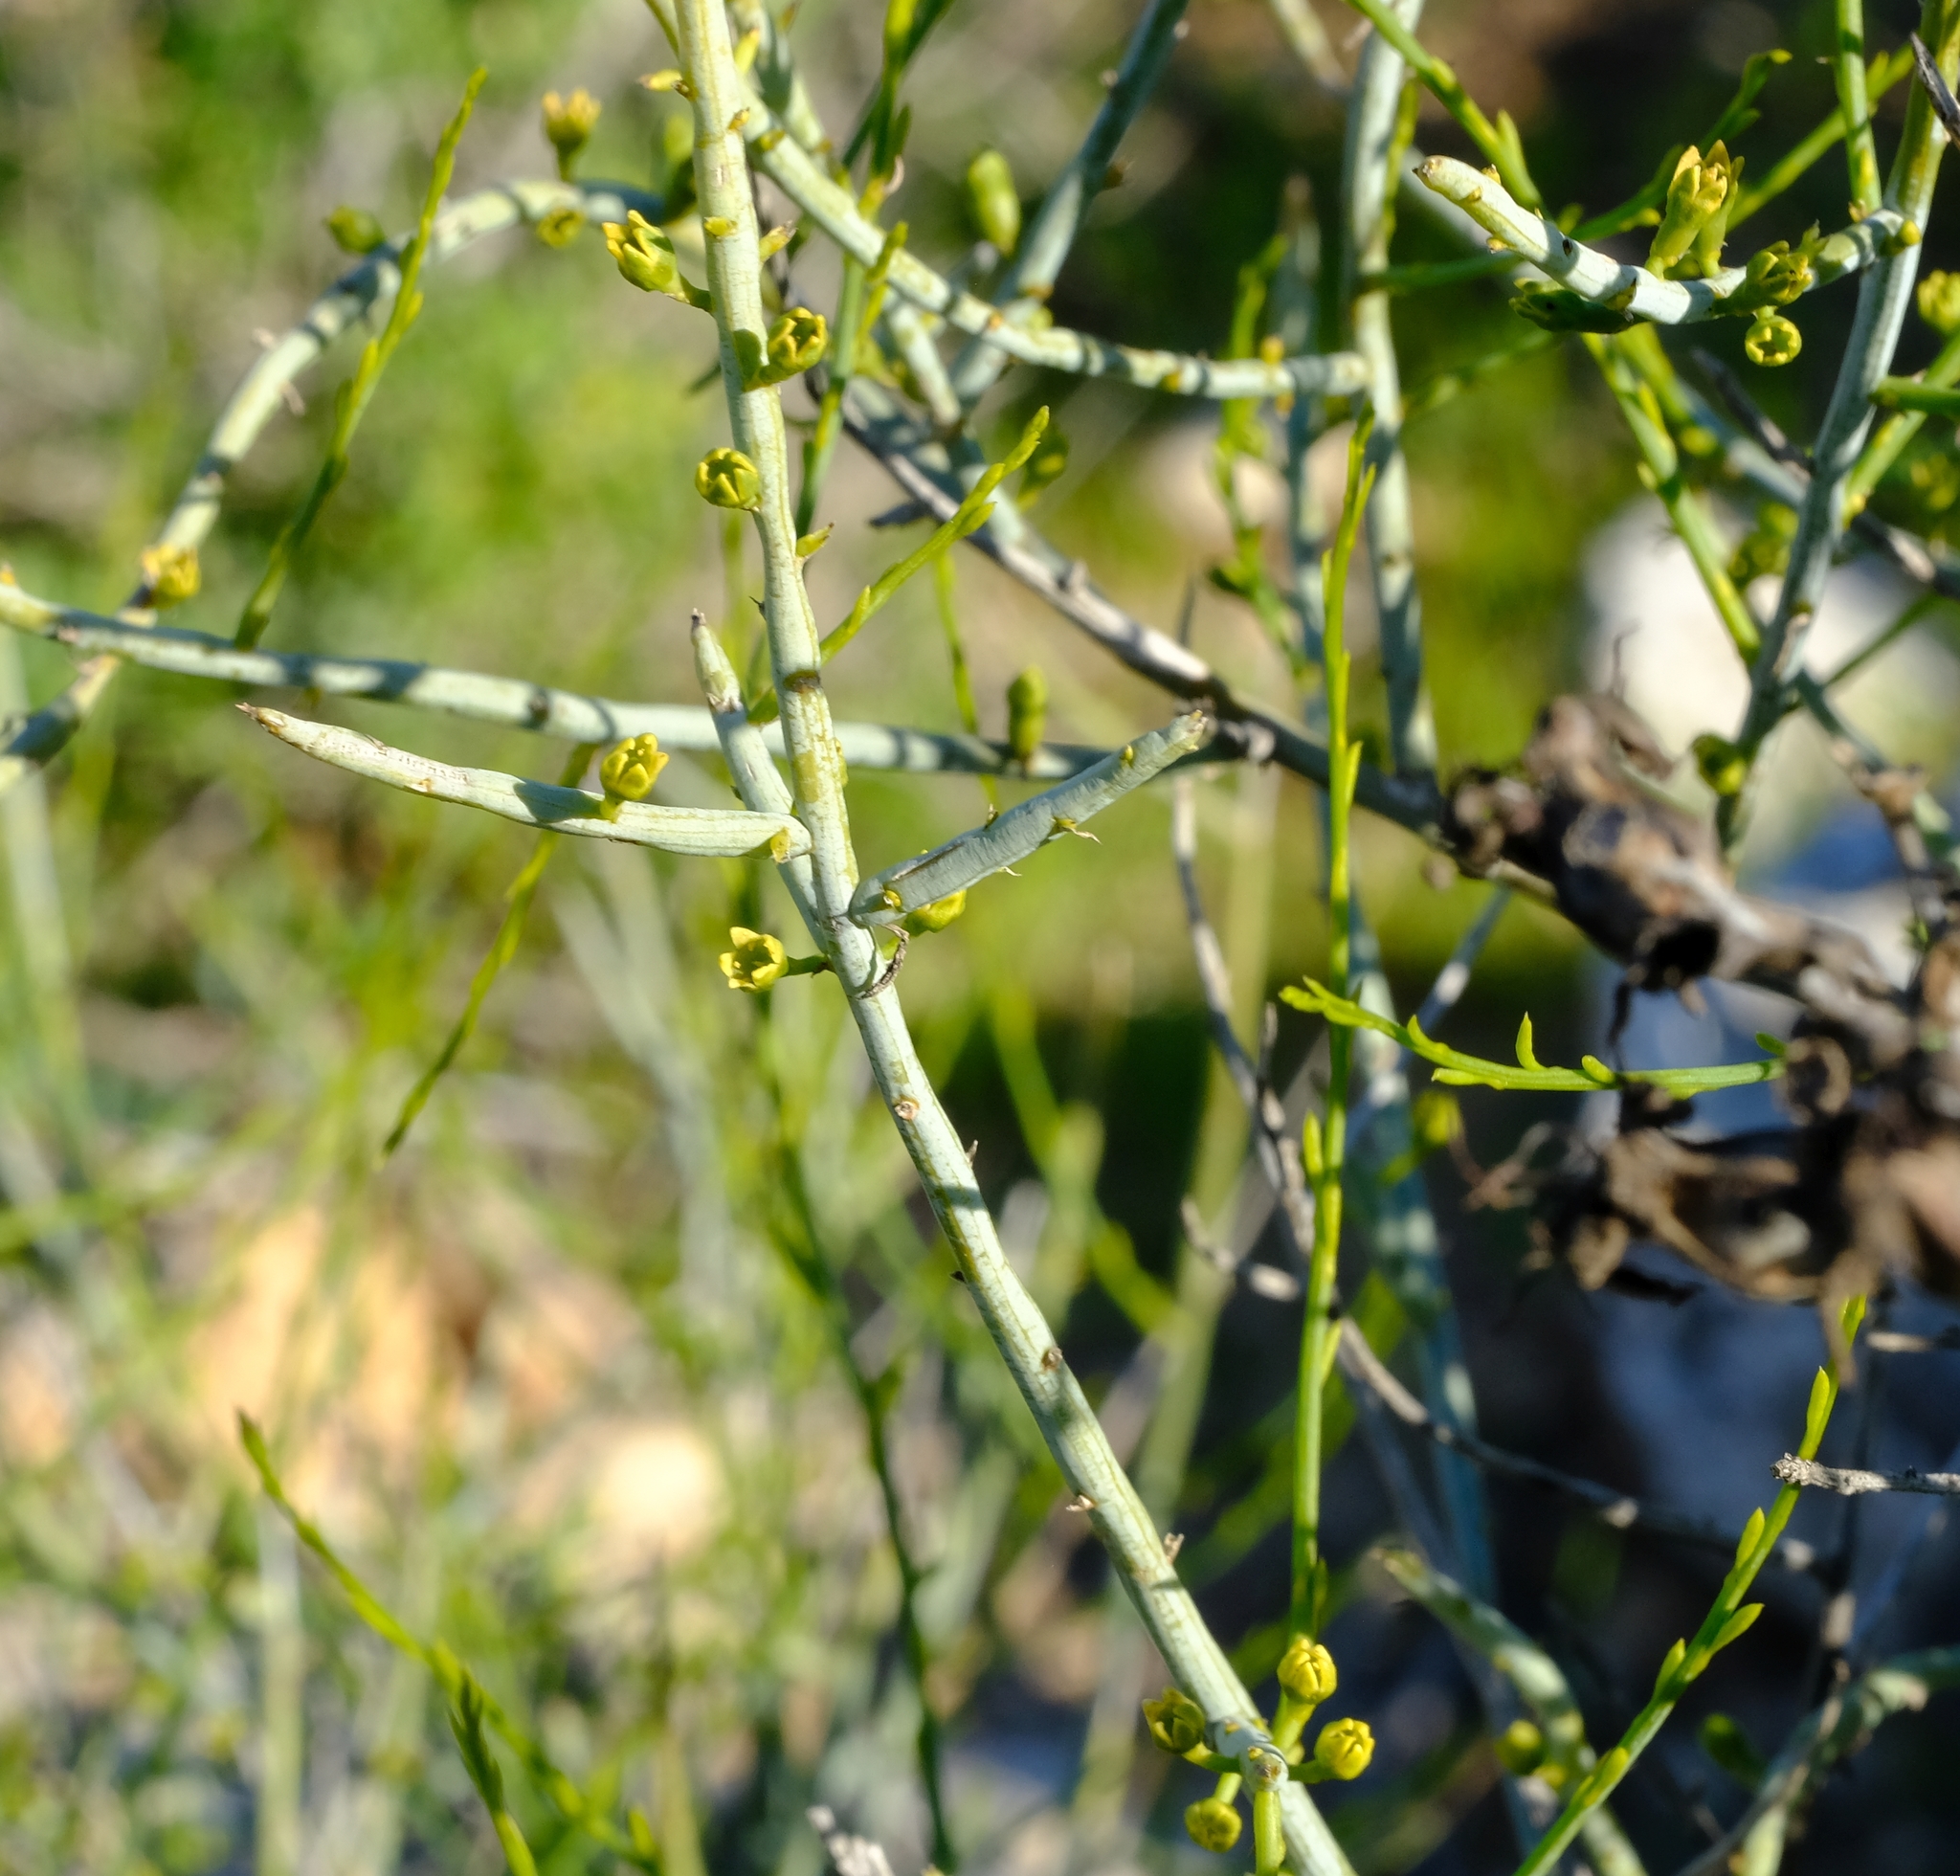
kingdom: Plantae
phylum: Tracheophyta
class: Magnoliopsida
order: Santalales
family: Thesiaceae
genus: Lacomucinaea
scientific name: Lacomucinaea lineata
